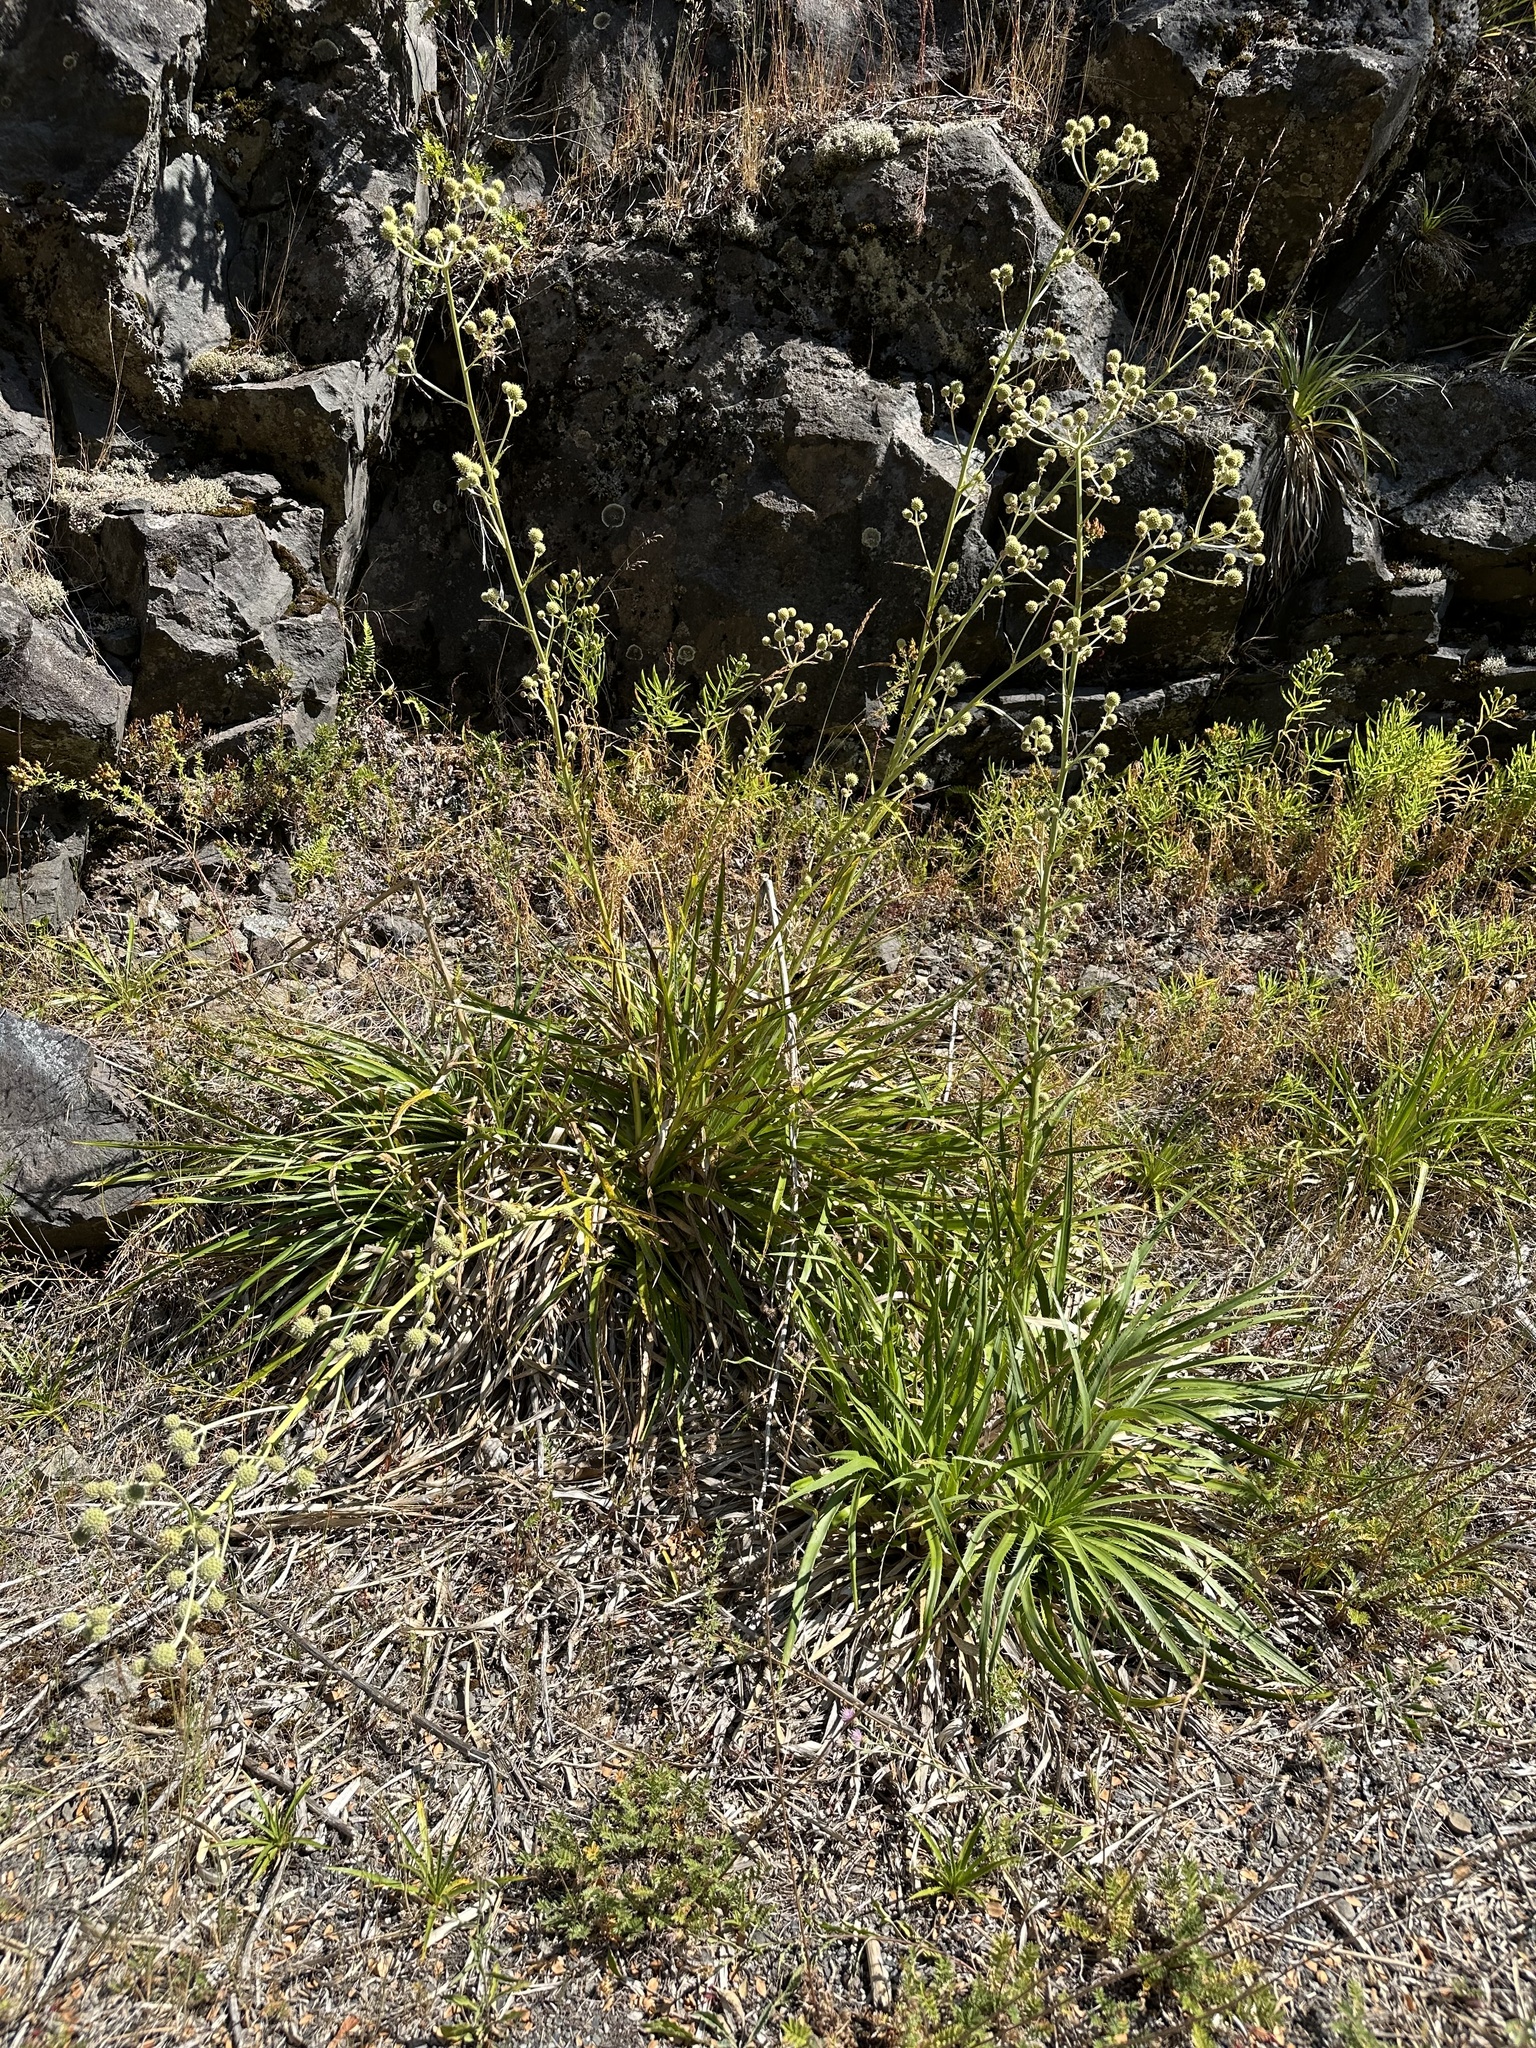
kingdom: Plantae
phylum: Tracheophyta
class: Magnoliopsida
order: Apiales
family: Apiaceae
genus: Eryngium
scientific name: Eryngium humboldtii
